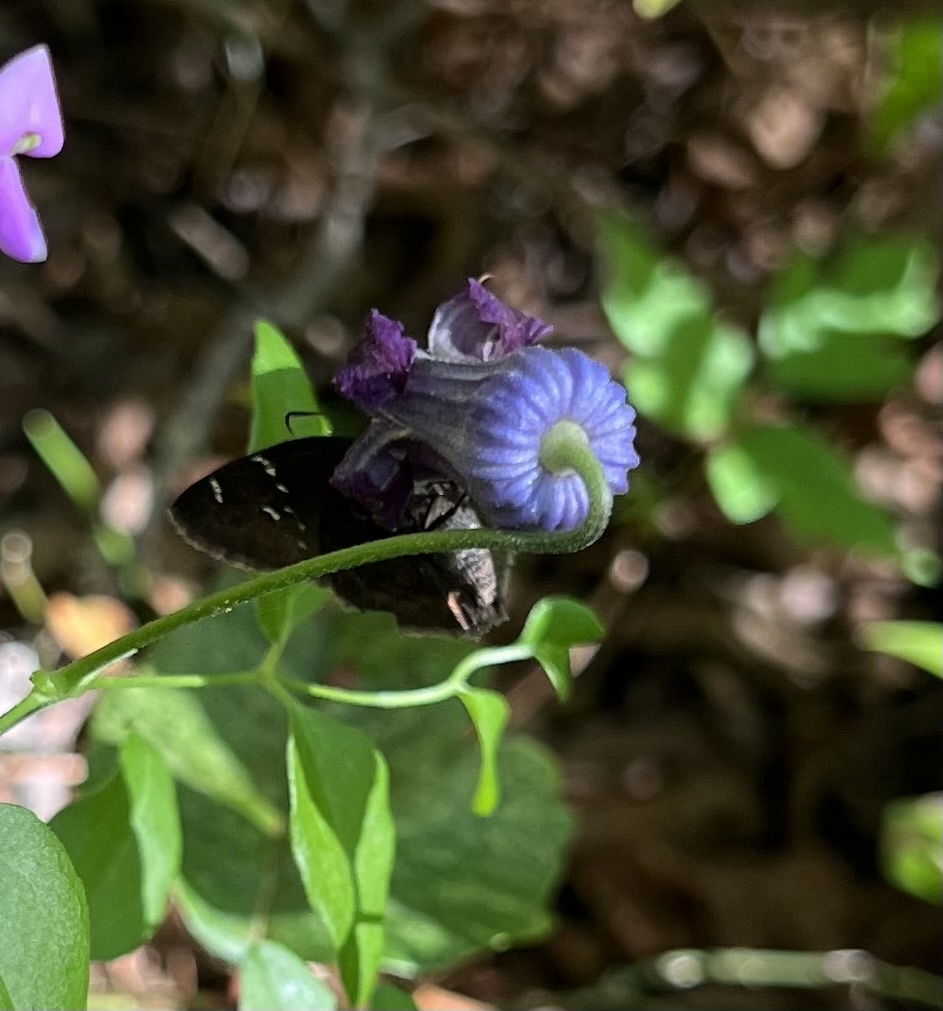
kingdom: Plantae
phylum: Tracheophyta
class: Magnoliopsida
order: Ranunculales
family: Ranunculaceae
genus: Clematis
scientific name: Clematis pitcheri
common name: Bellflower clematis
